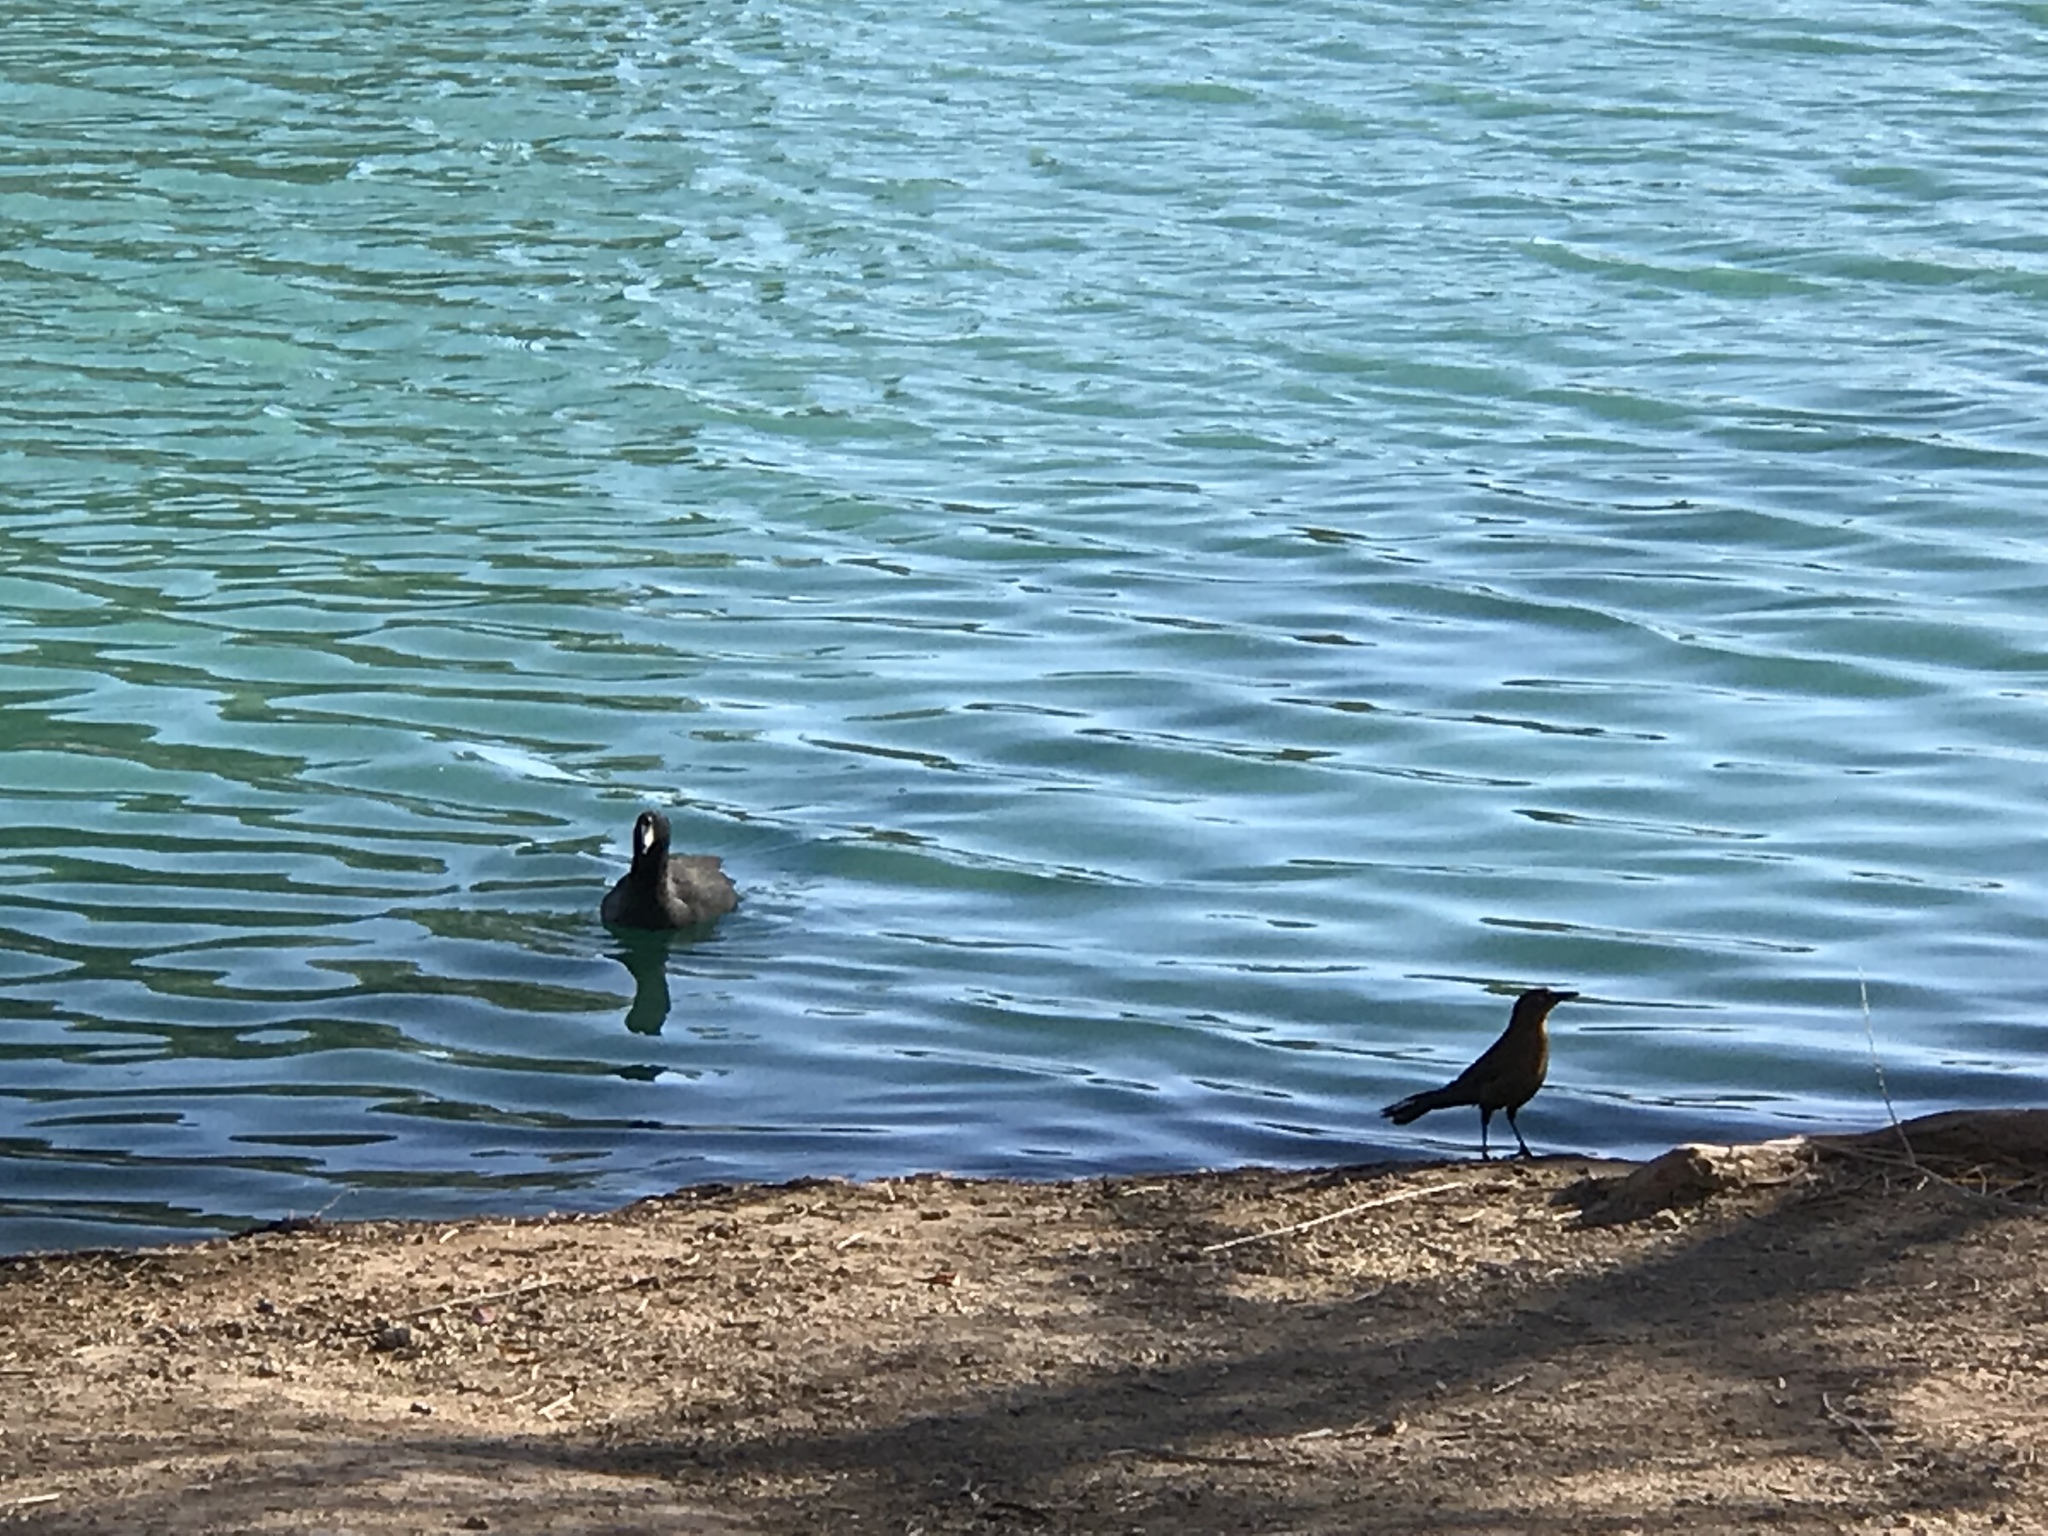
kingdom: Animalia
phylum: Chordata
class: Aves
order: Passeriformes
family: Icteridae
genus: Quiscalus
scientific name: Quiscalus mexicanus
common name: Great-tailed grackle
